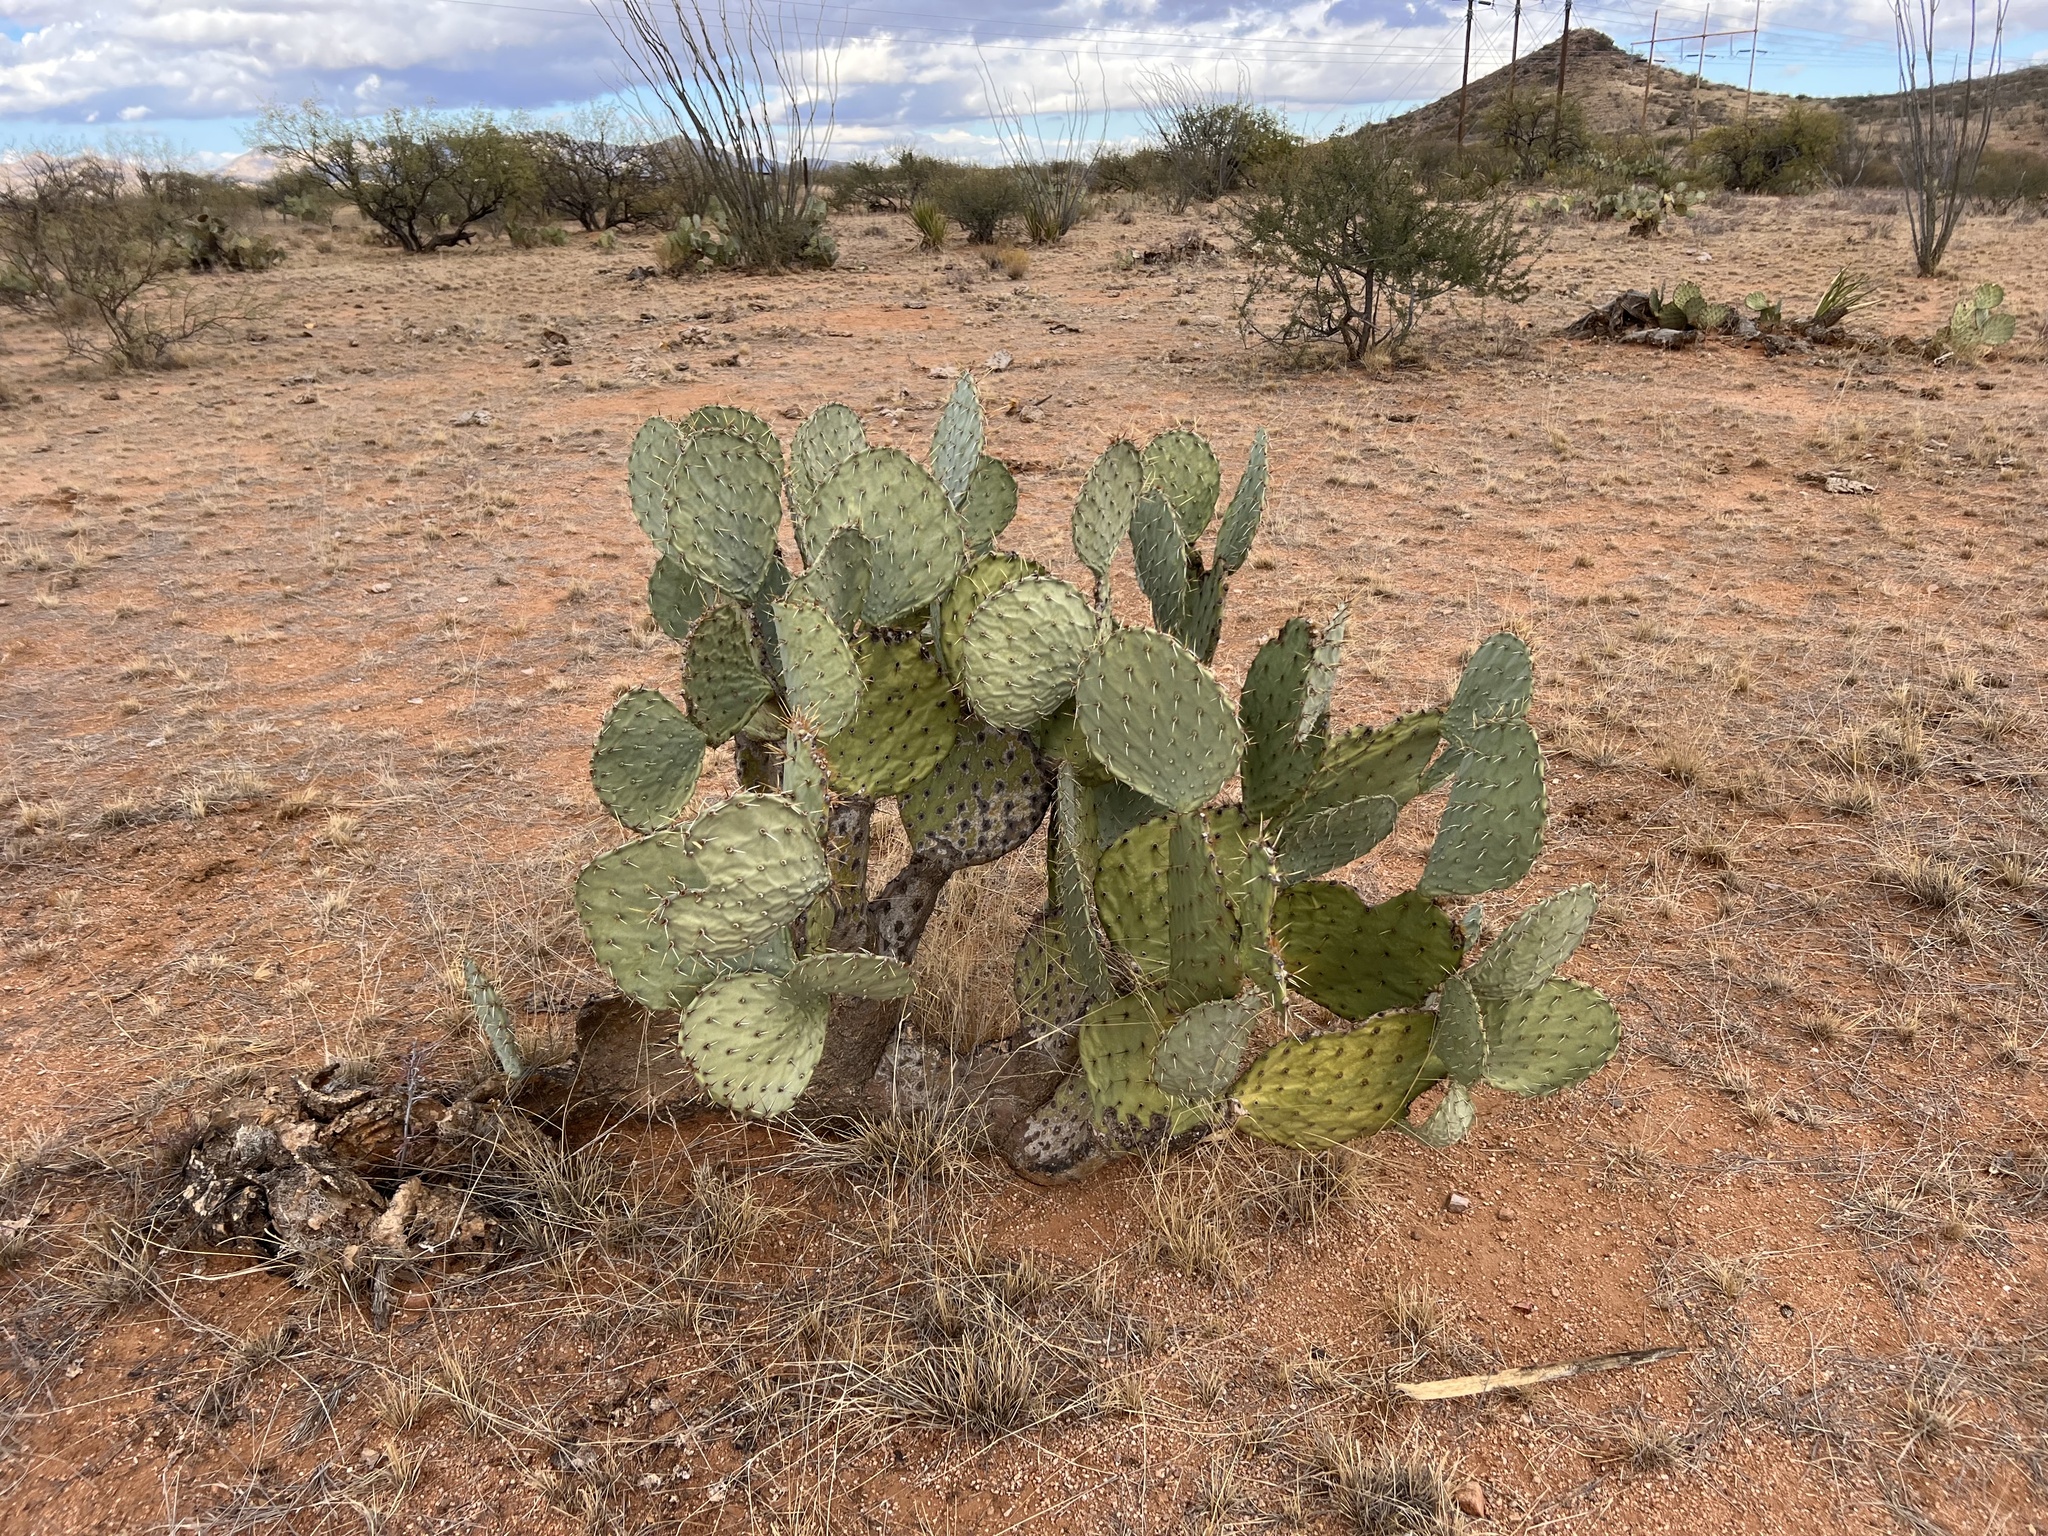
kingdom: Plantae
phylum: Tracheophyta
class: Magnoliopsida
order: Caryophyllales
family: Cactaceae
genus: Opuntia
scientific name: Opuntia engelmannii
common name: Cactus-apple
